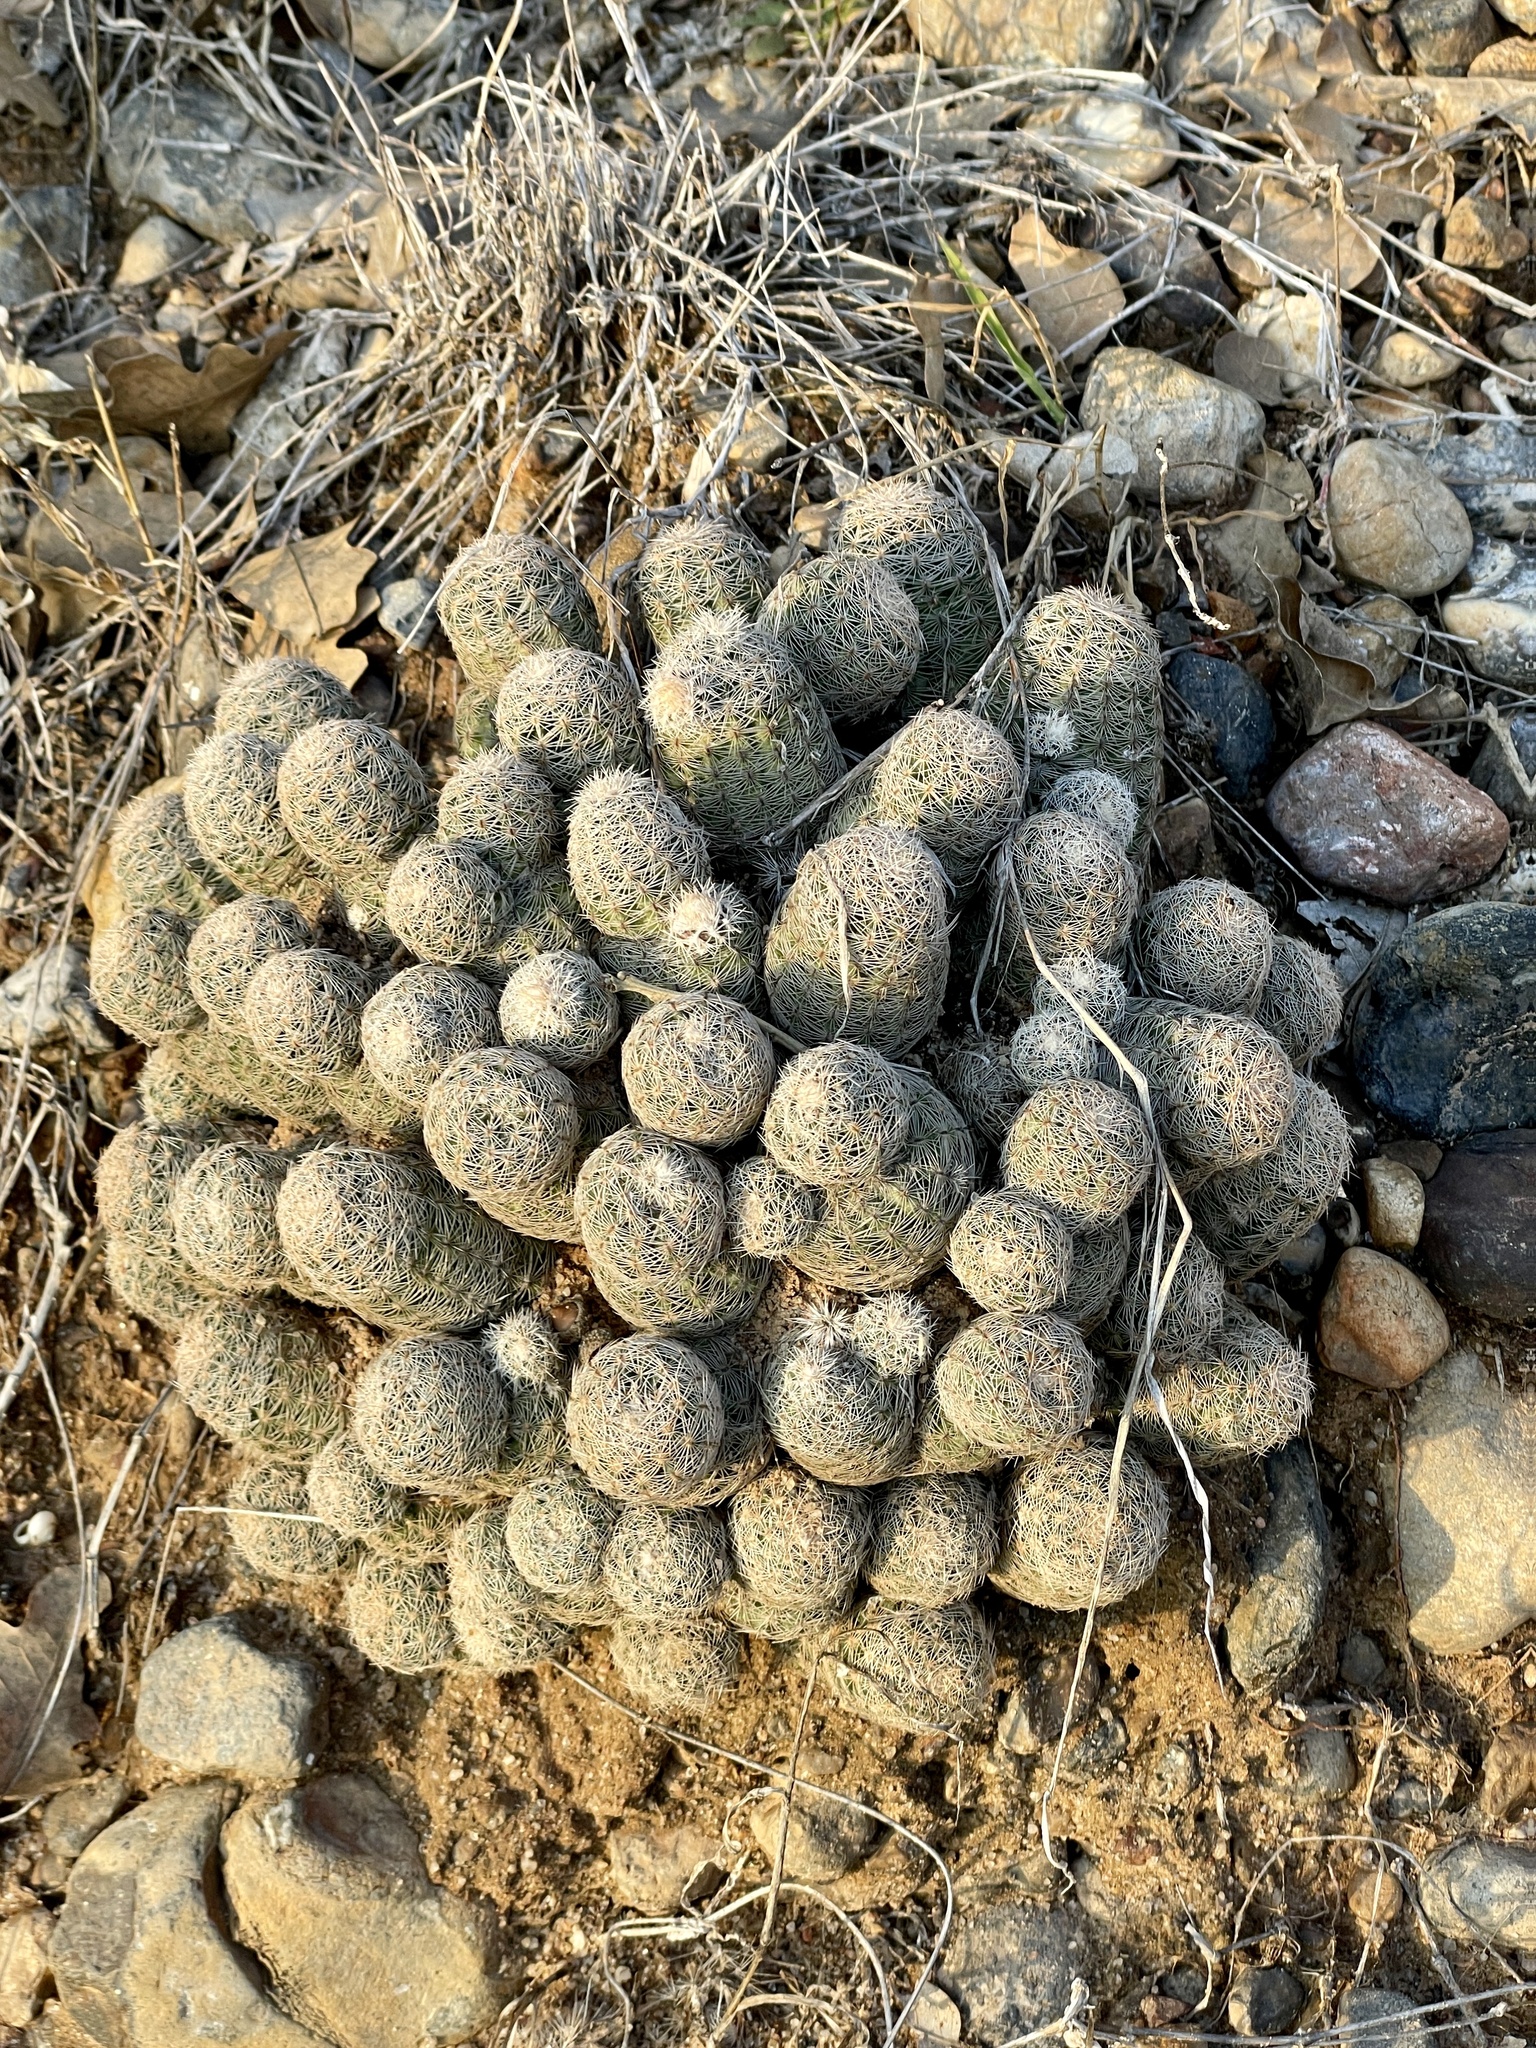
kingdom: Plantae
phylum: Tracheophyta
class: Magnoliopsida
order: Caryophyllales
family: Cactaceae
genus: Echinocereus
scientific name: Echinocereus reichenbachii
